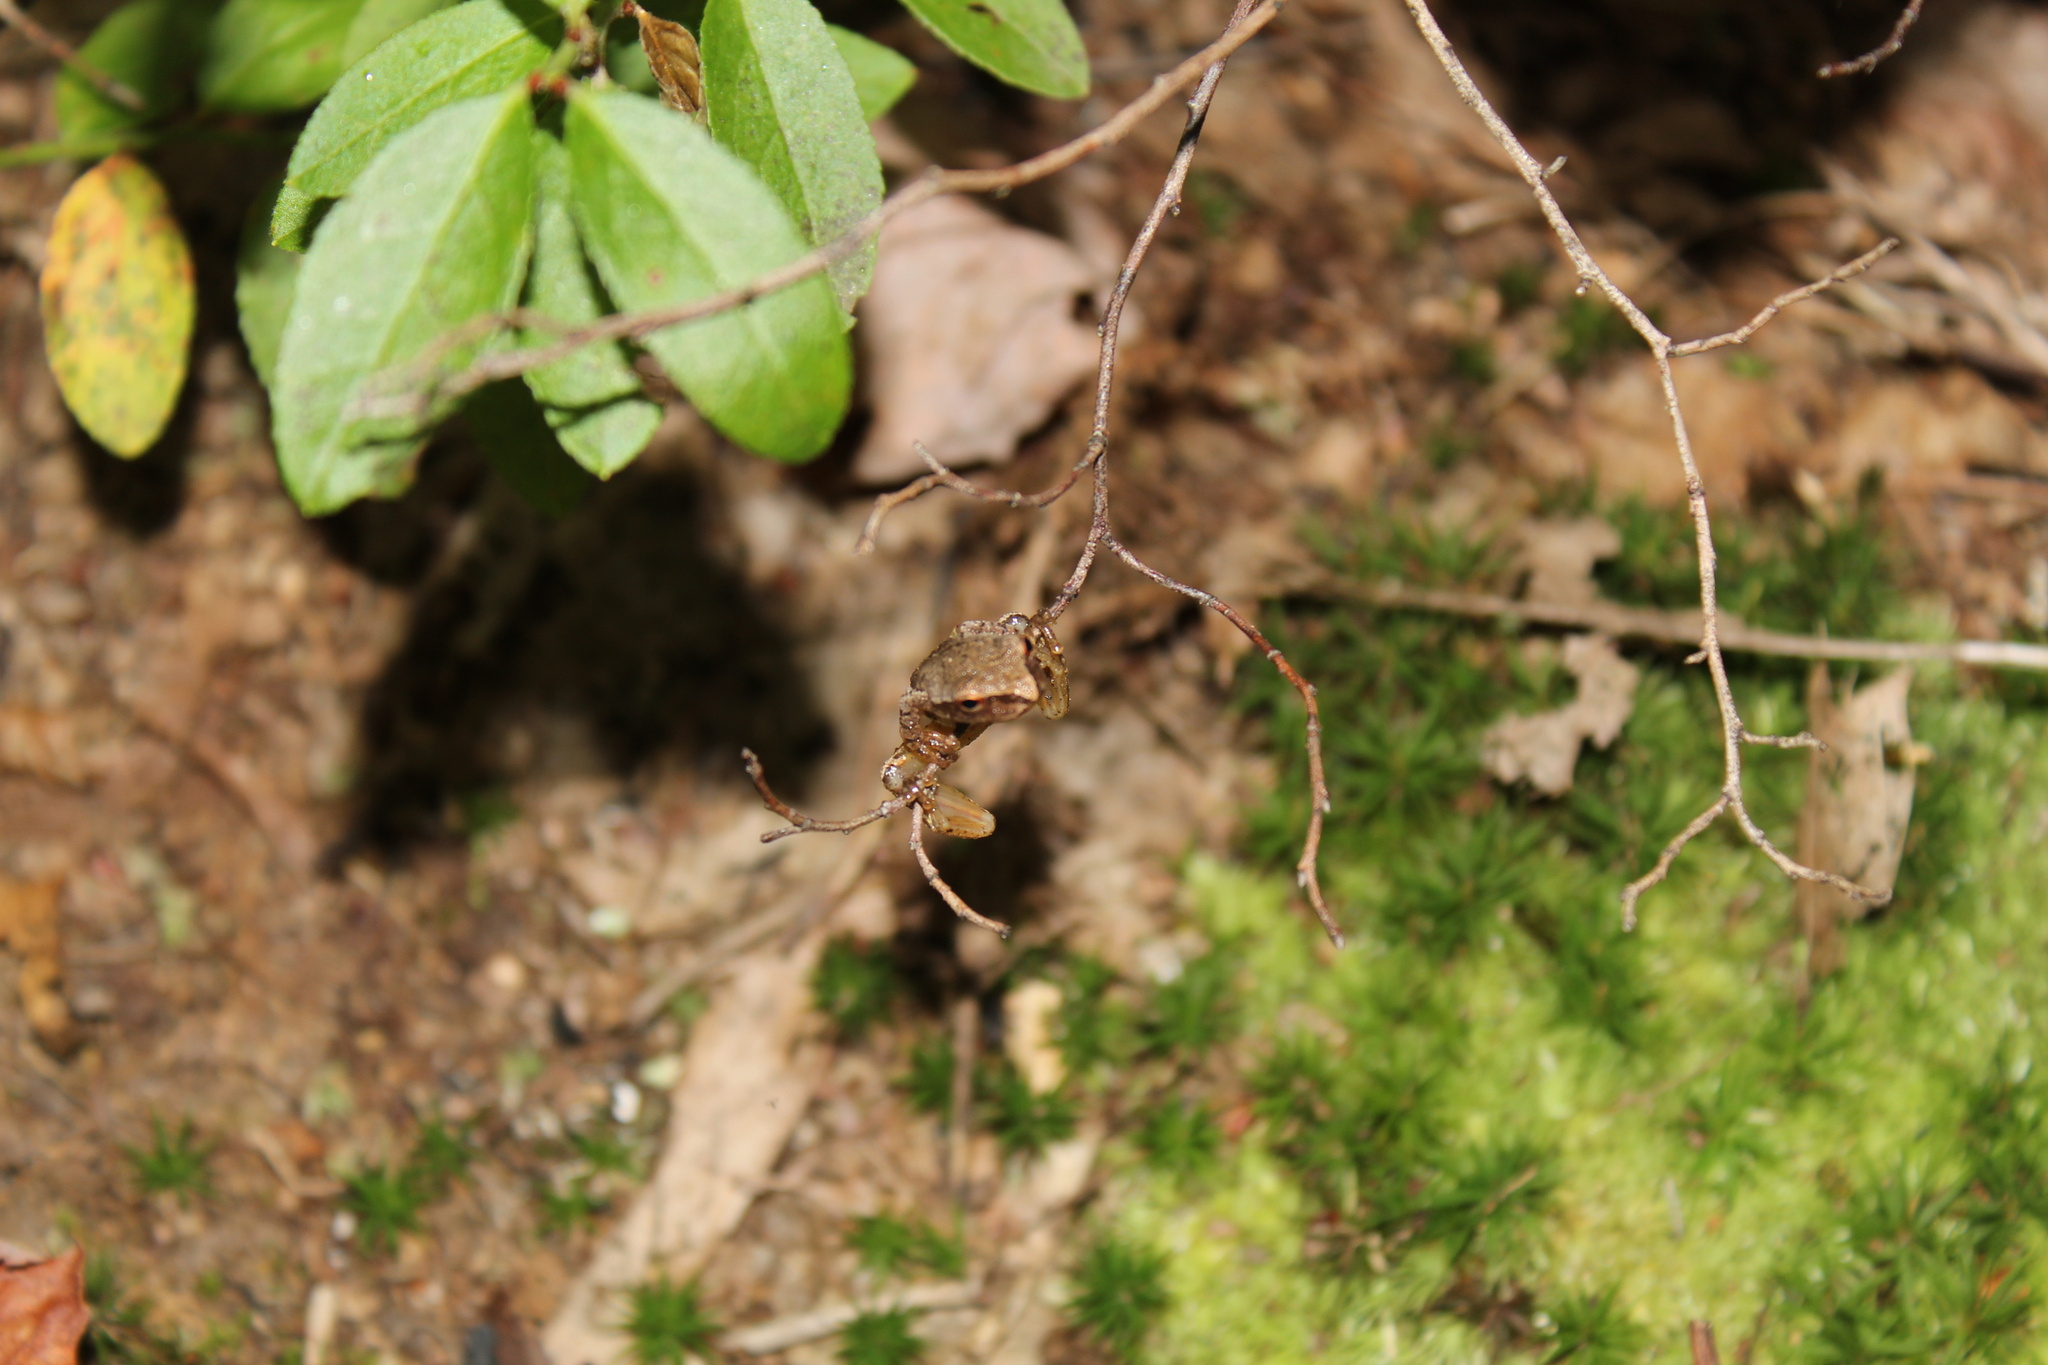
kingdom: Animalia
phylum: Chordata
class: Amphibia
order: Anura
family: Hylidae
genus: Pseudacris
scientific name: Pseudacris crucifer
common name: Spring peeper
